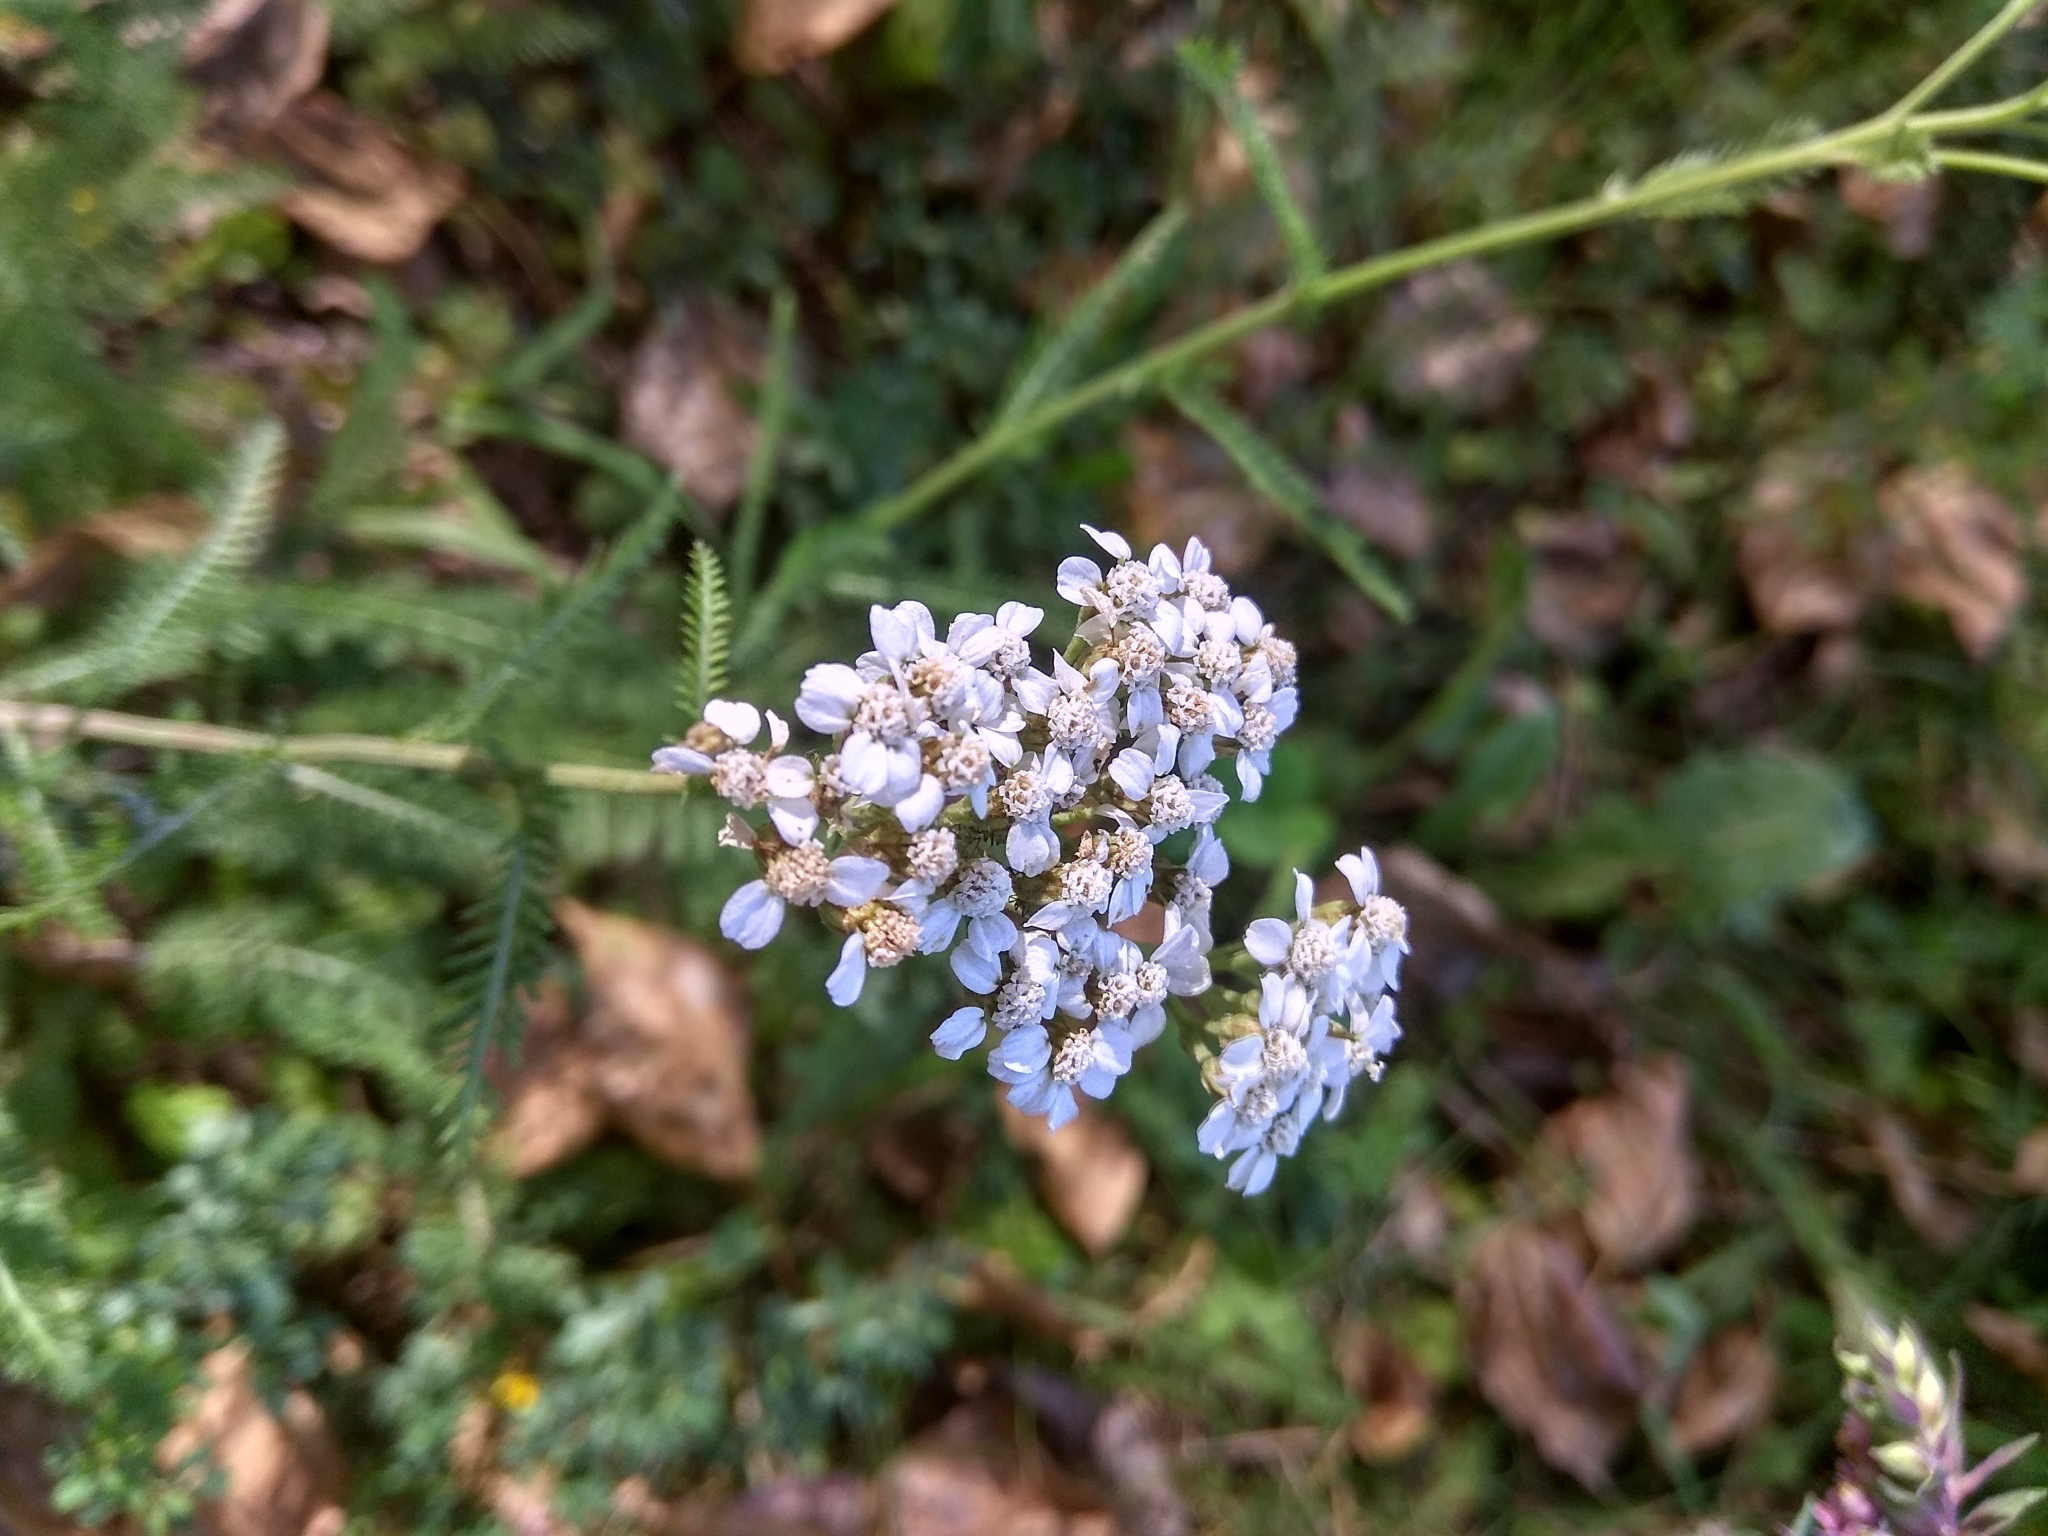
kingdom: Plantae
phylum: Tracheophyta
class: Magnoliopsida
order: Asterales
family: Asteraceae
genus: Achillea
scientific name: Achillea millefolium
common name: Yarrow
